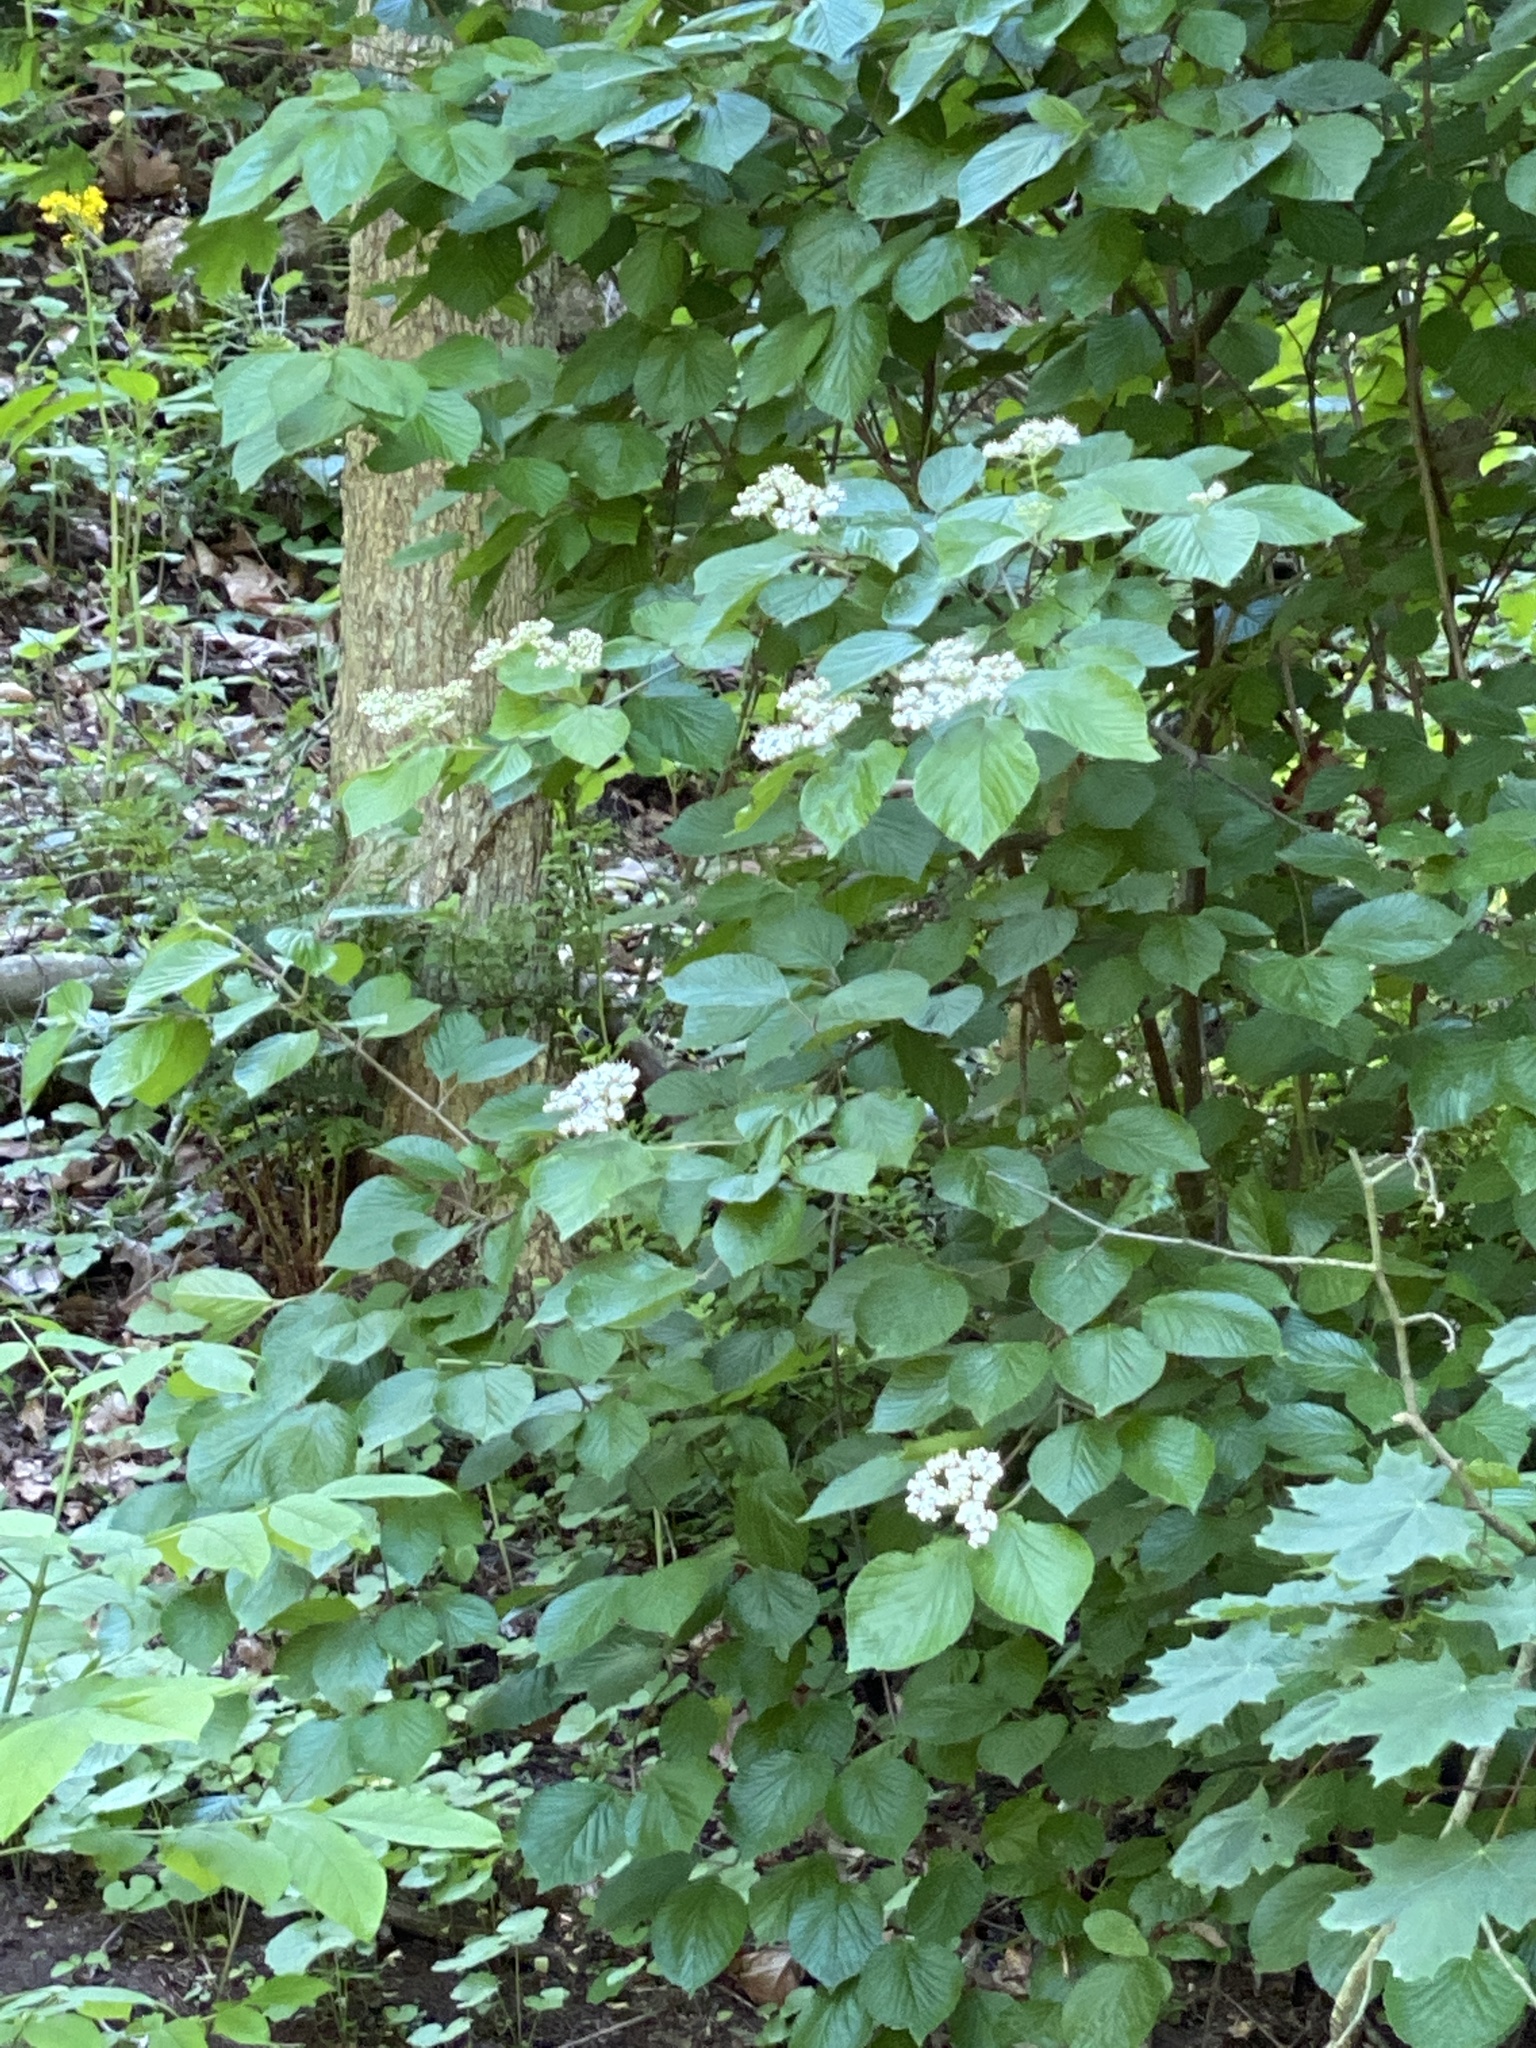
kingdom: Plantae
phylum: Tracheophyta
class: Magnoliopsida
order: Dipsacales
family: Viburnaceae
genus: Viburnum
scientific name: Viburnum dilatatum
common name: Linden arrowwood
